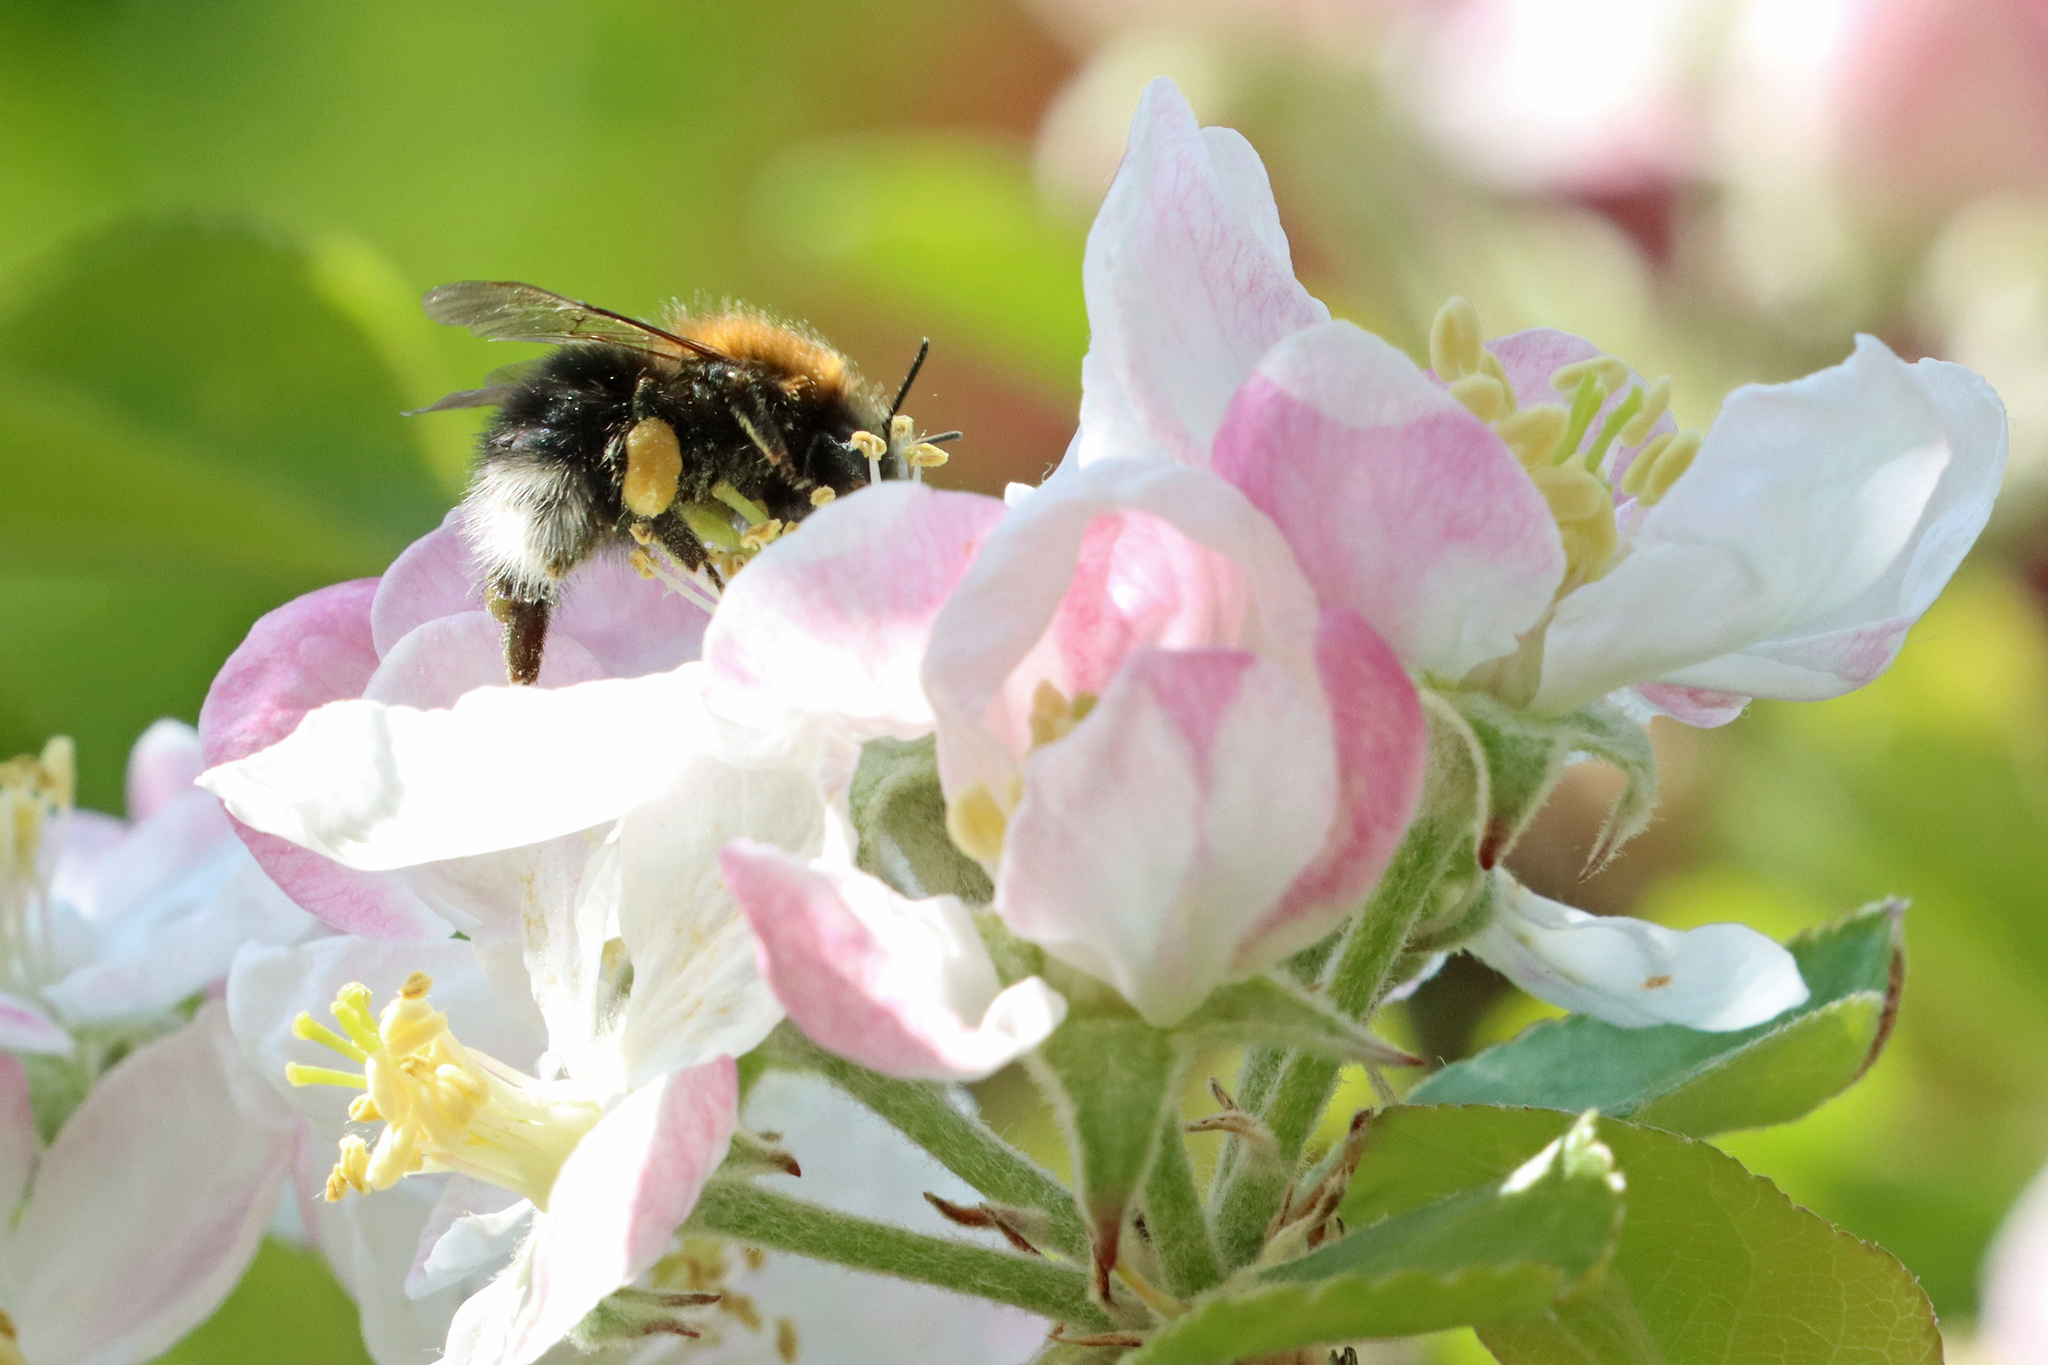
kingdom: Animalia
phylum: Arthropoda
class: Insecta
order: Hymenoptera
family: Apidae
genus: Bombus
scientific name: Bombus hypnorum
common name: New garden bumblebee
